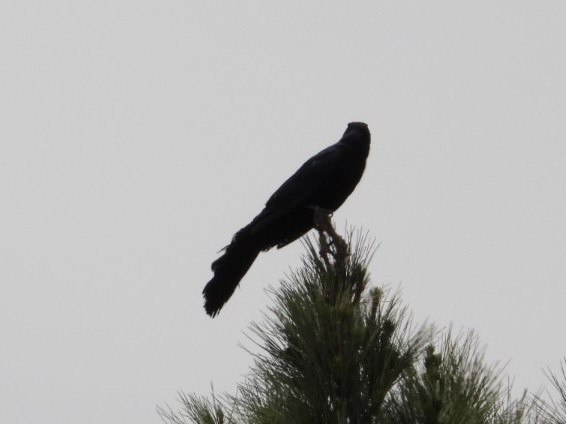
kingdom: Animalia
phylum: Chordata
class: Aves
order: Passeriformes
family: Icteridae
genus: Quiscalus
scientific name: Quiscalus mexicanus
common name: Great-tailed grackle
